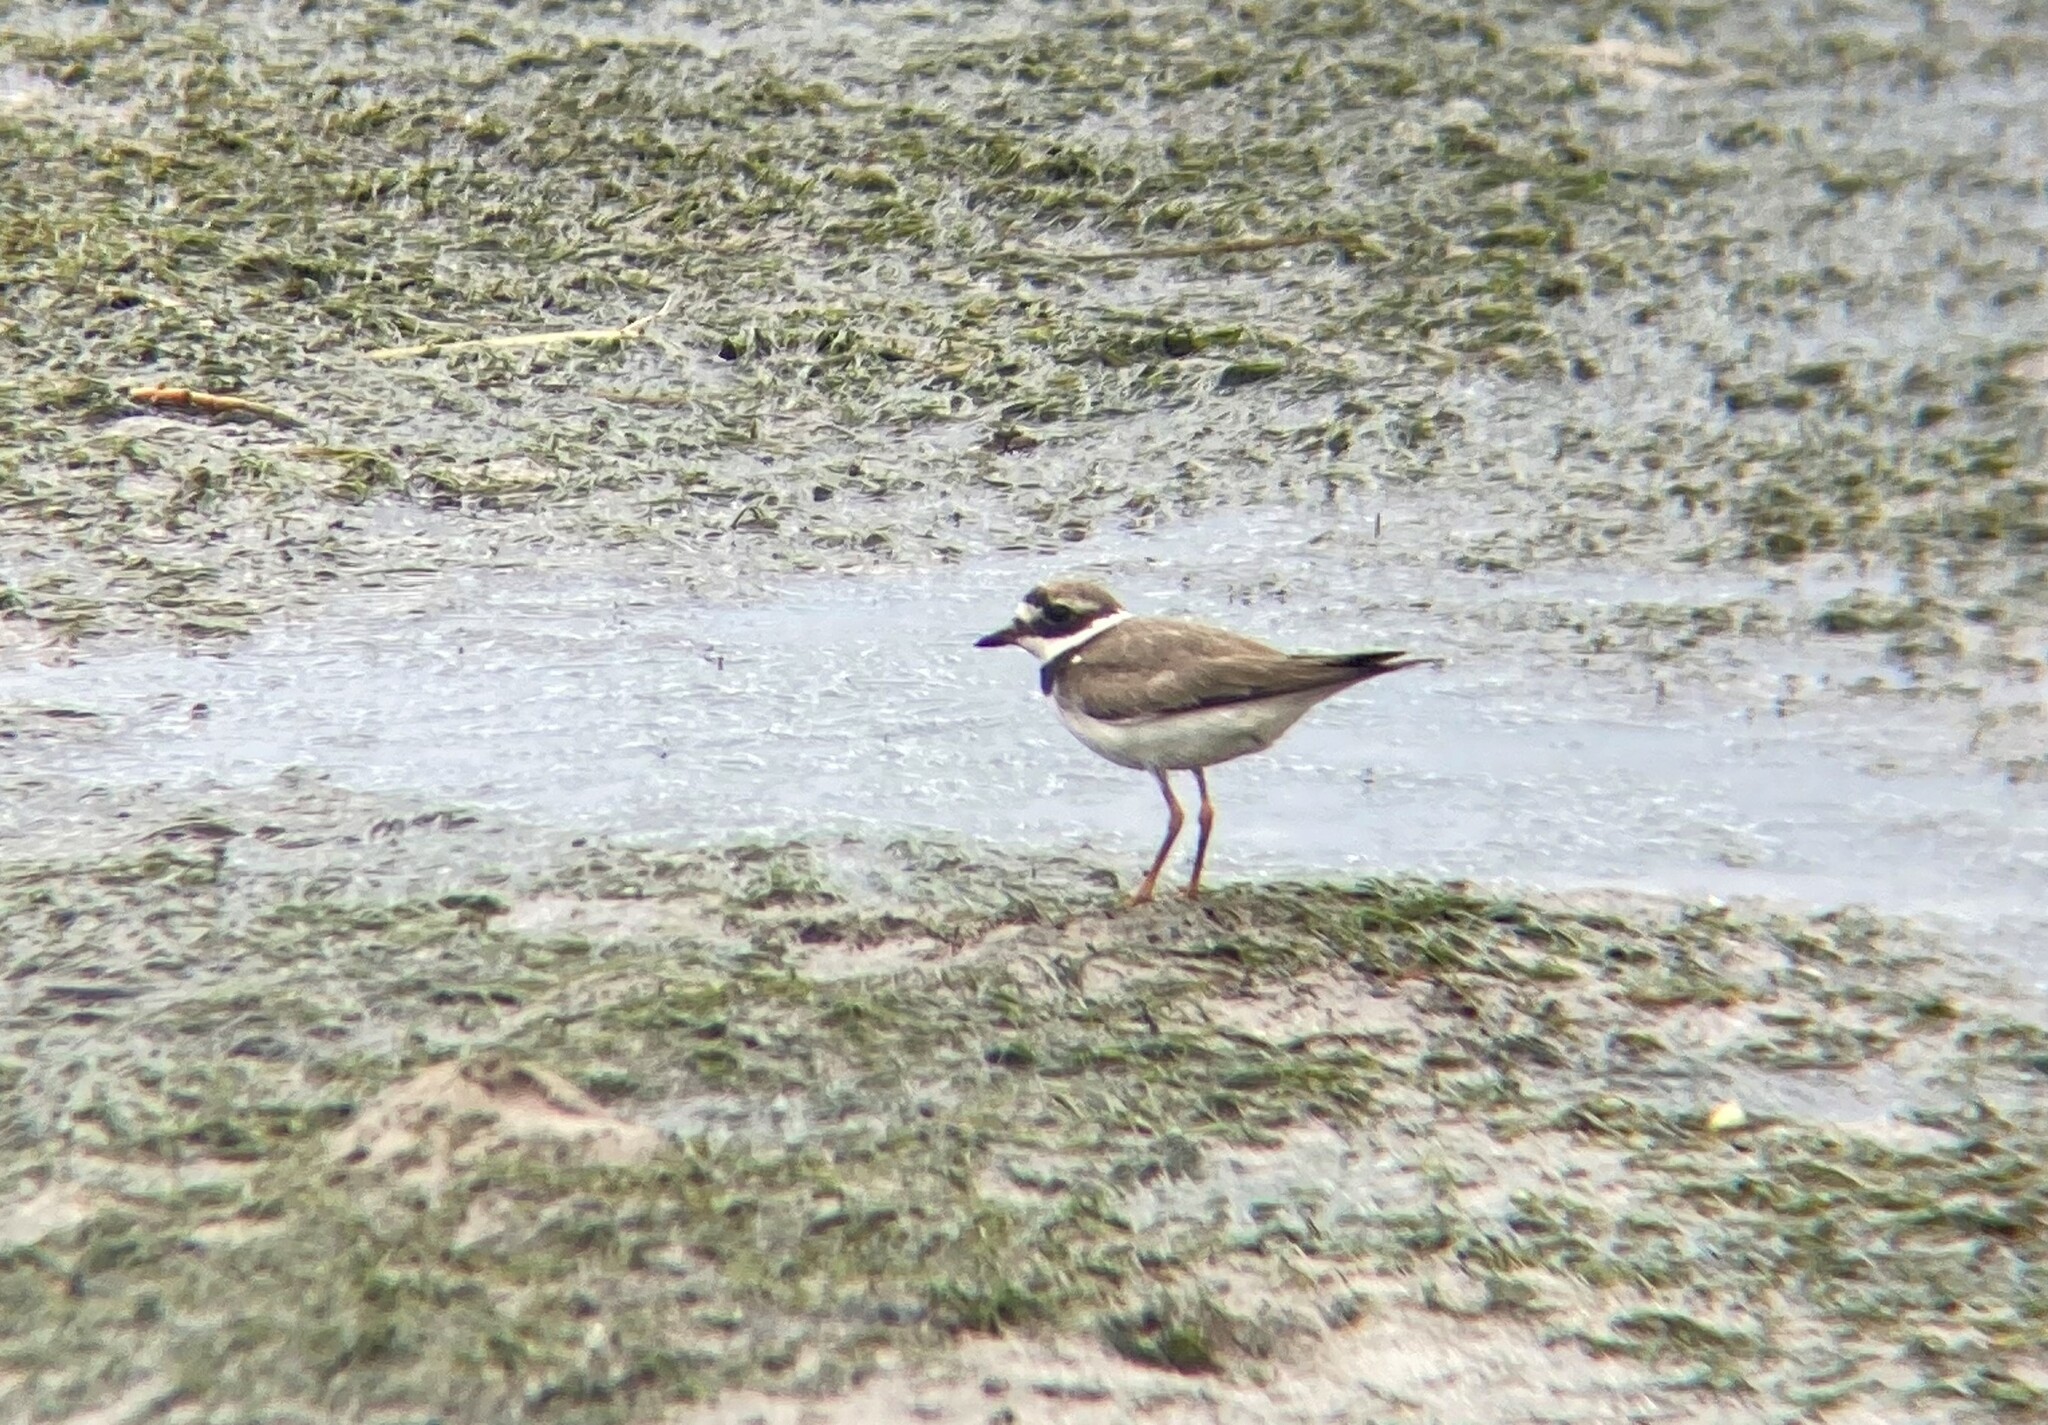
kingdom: Animalia
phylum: Chordata
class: Aves
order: Charadriiformes
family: Charadriidae
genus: Charadrius
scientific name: Charadrius hiaticula
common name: Common ringed plover
